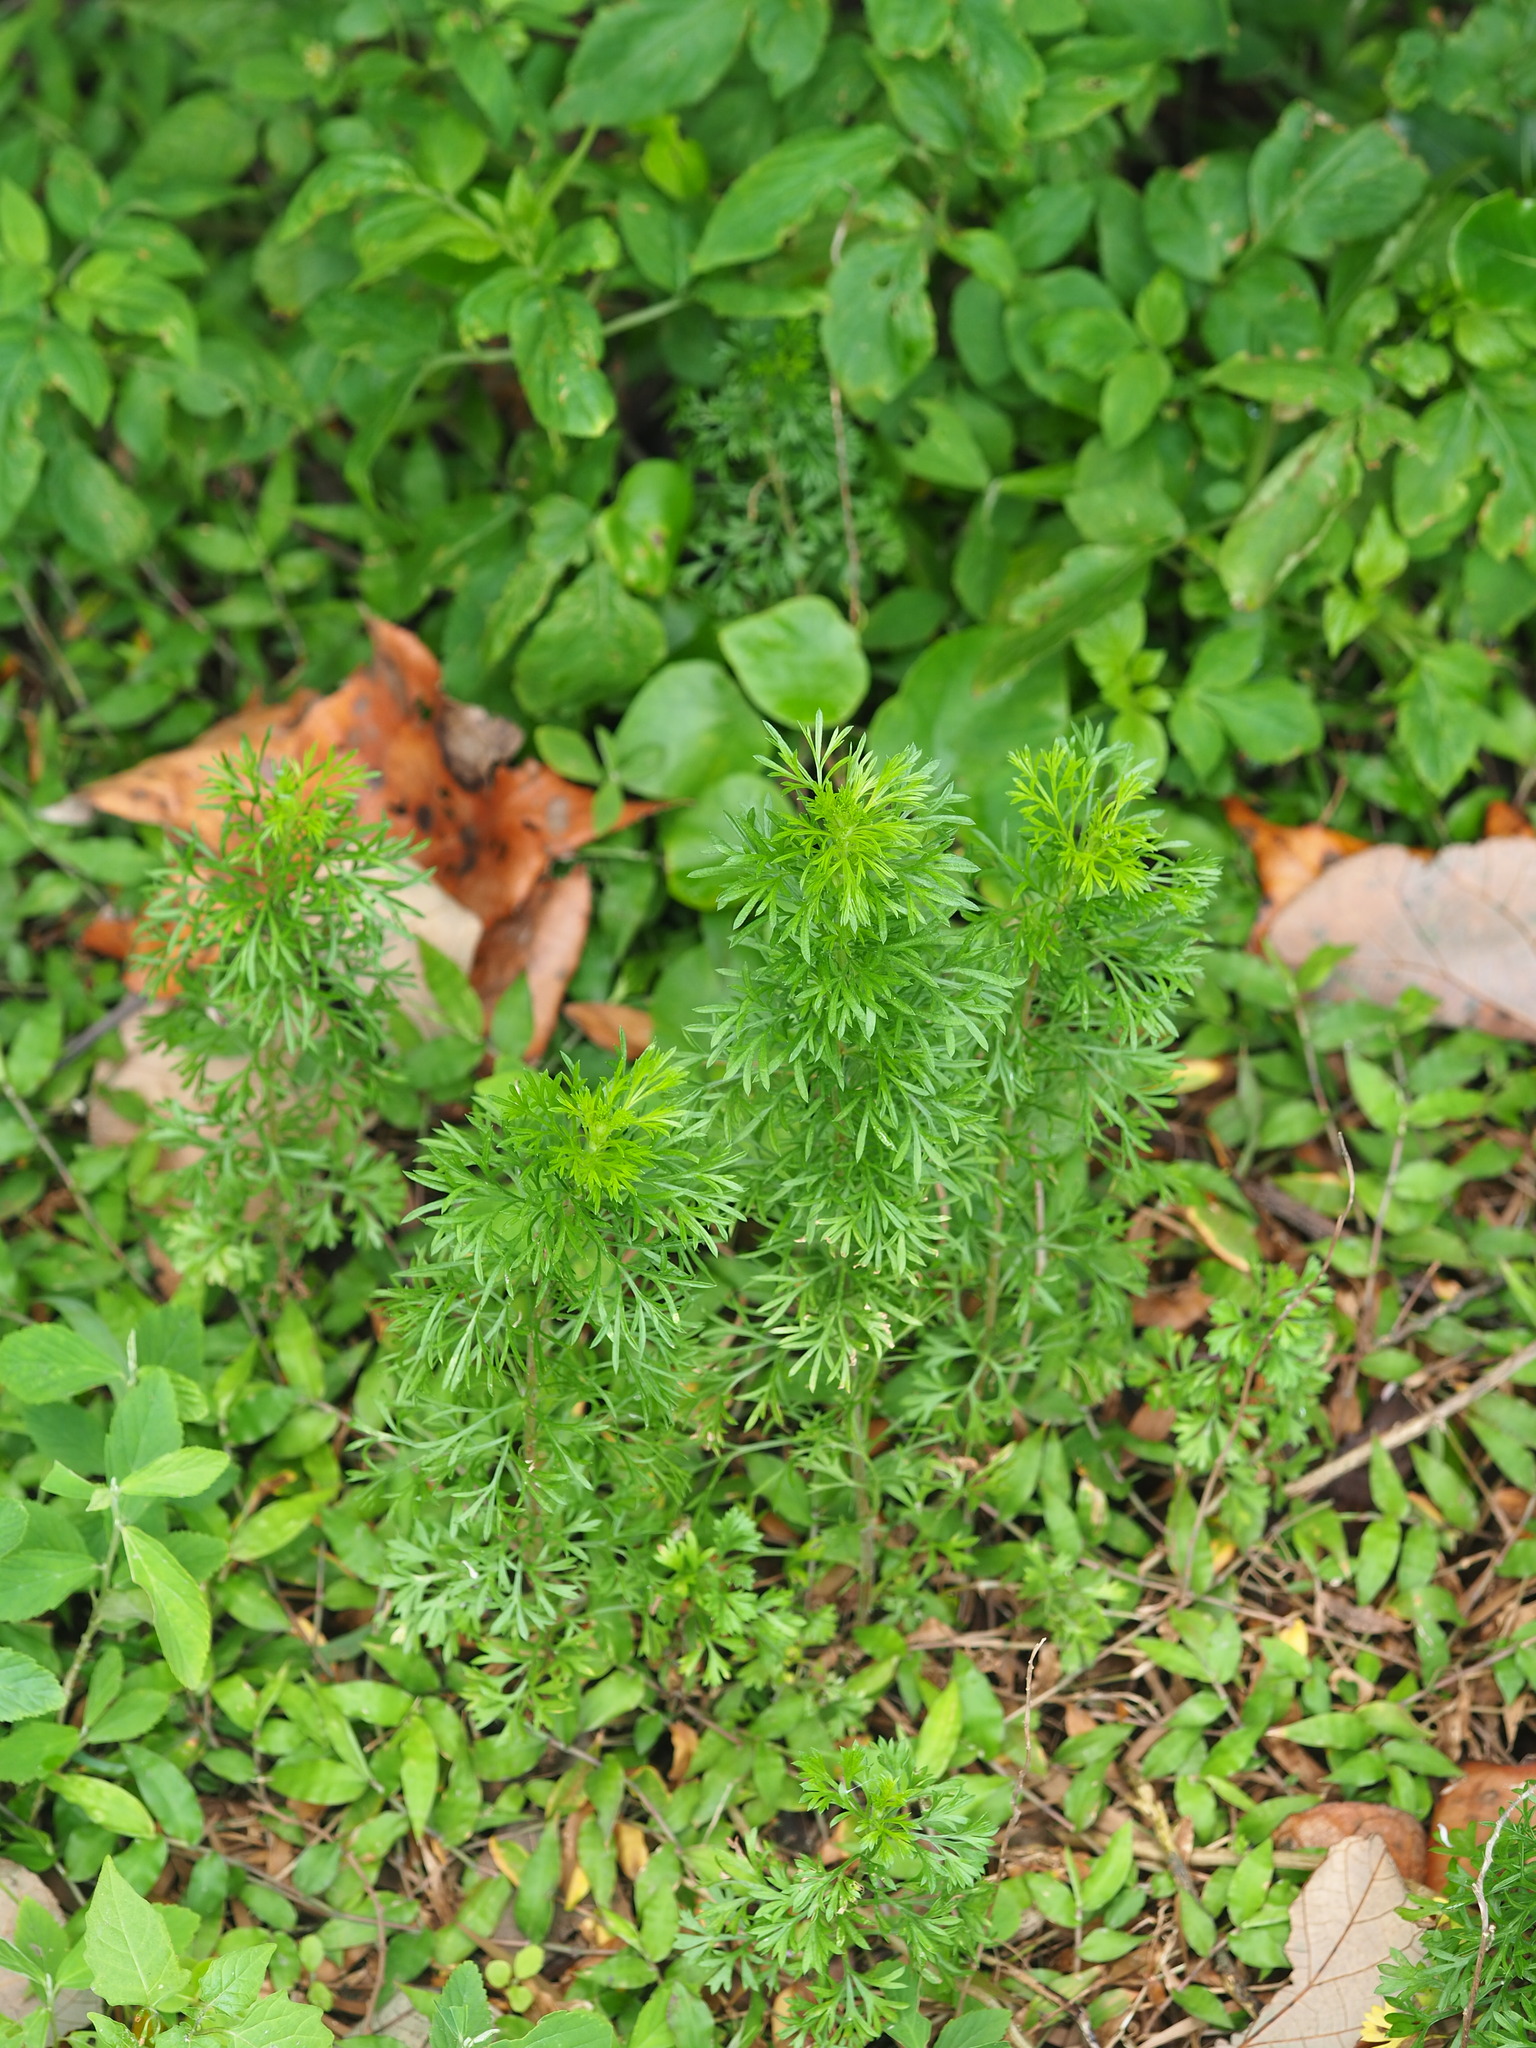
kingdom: Plantae
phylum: Tracheophyta
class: Magnoliopsida
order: Asterales
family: Asteraceae
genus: Artemisia
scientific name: Artemisia capillaris
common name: Yin-chen wormwood
